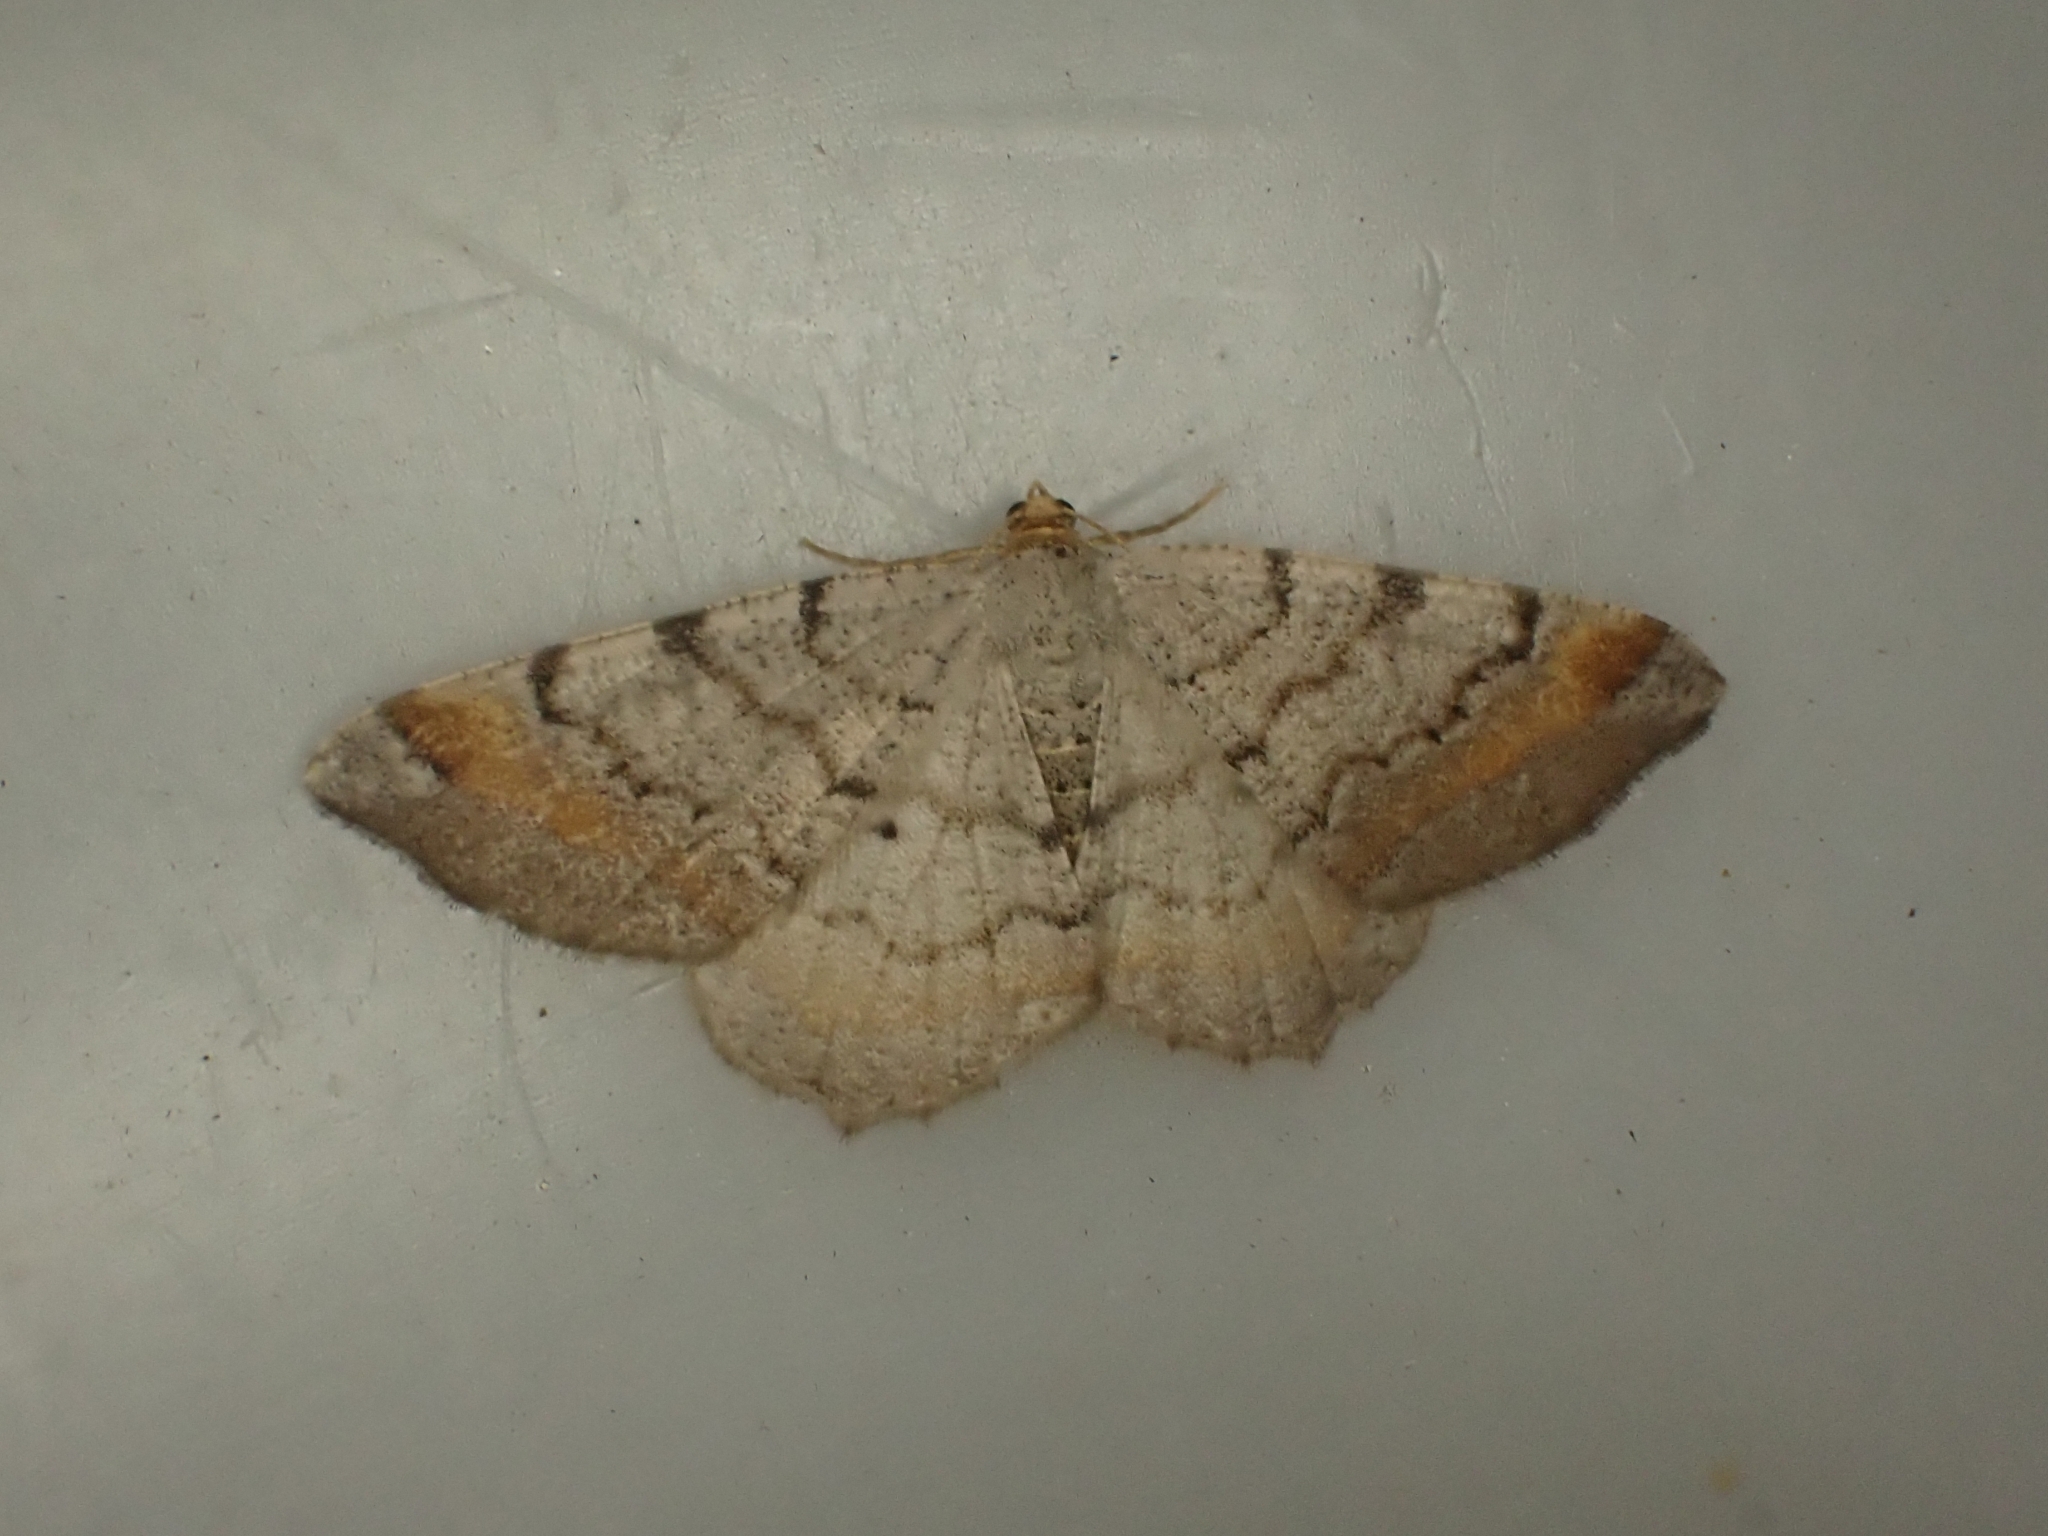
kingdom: Animalia
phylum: Arthropoda
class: Insecta
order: Lepidoptera
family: Geometridae
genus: Macaria
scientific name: Macaria liturata
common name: Tawny-barred angle
